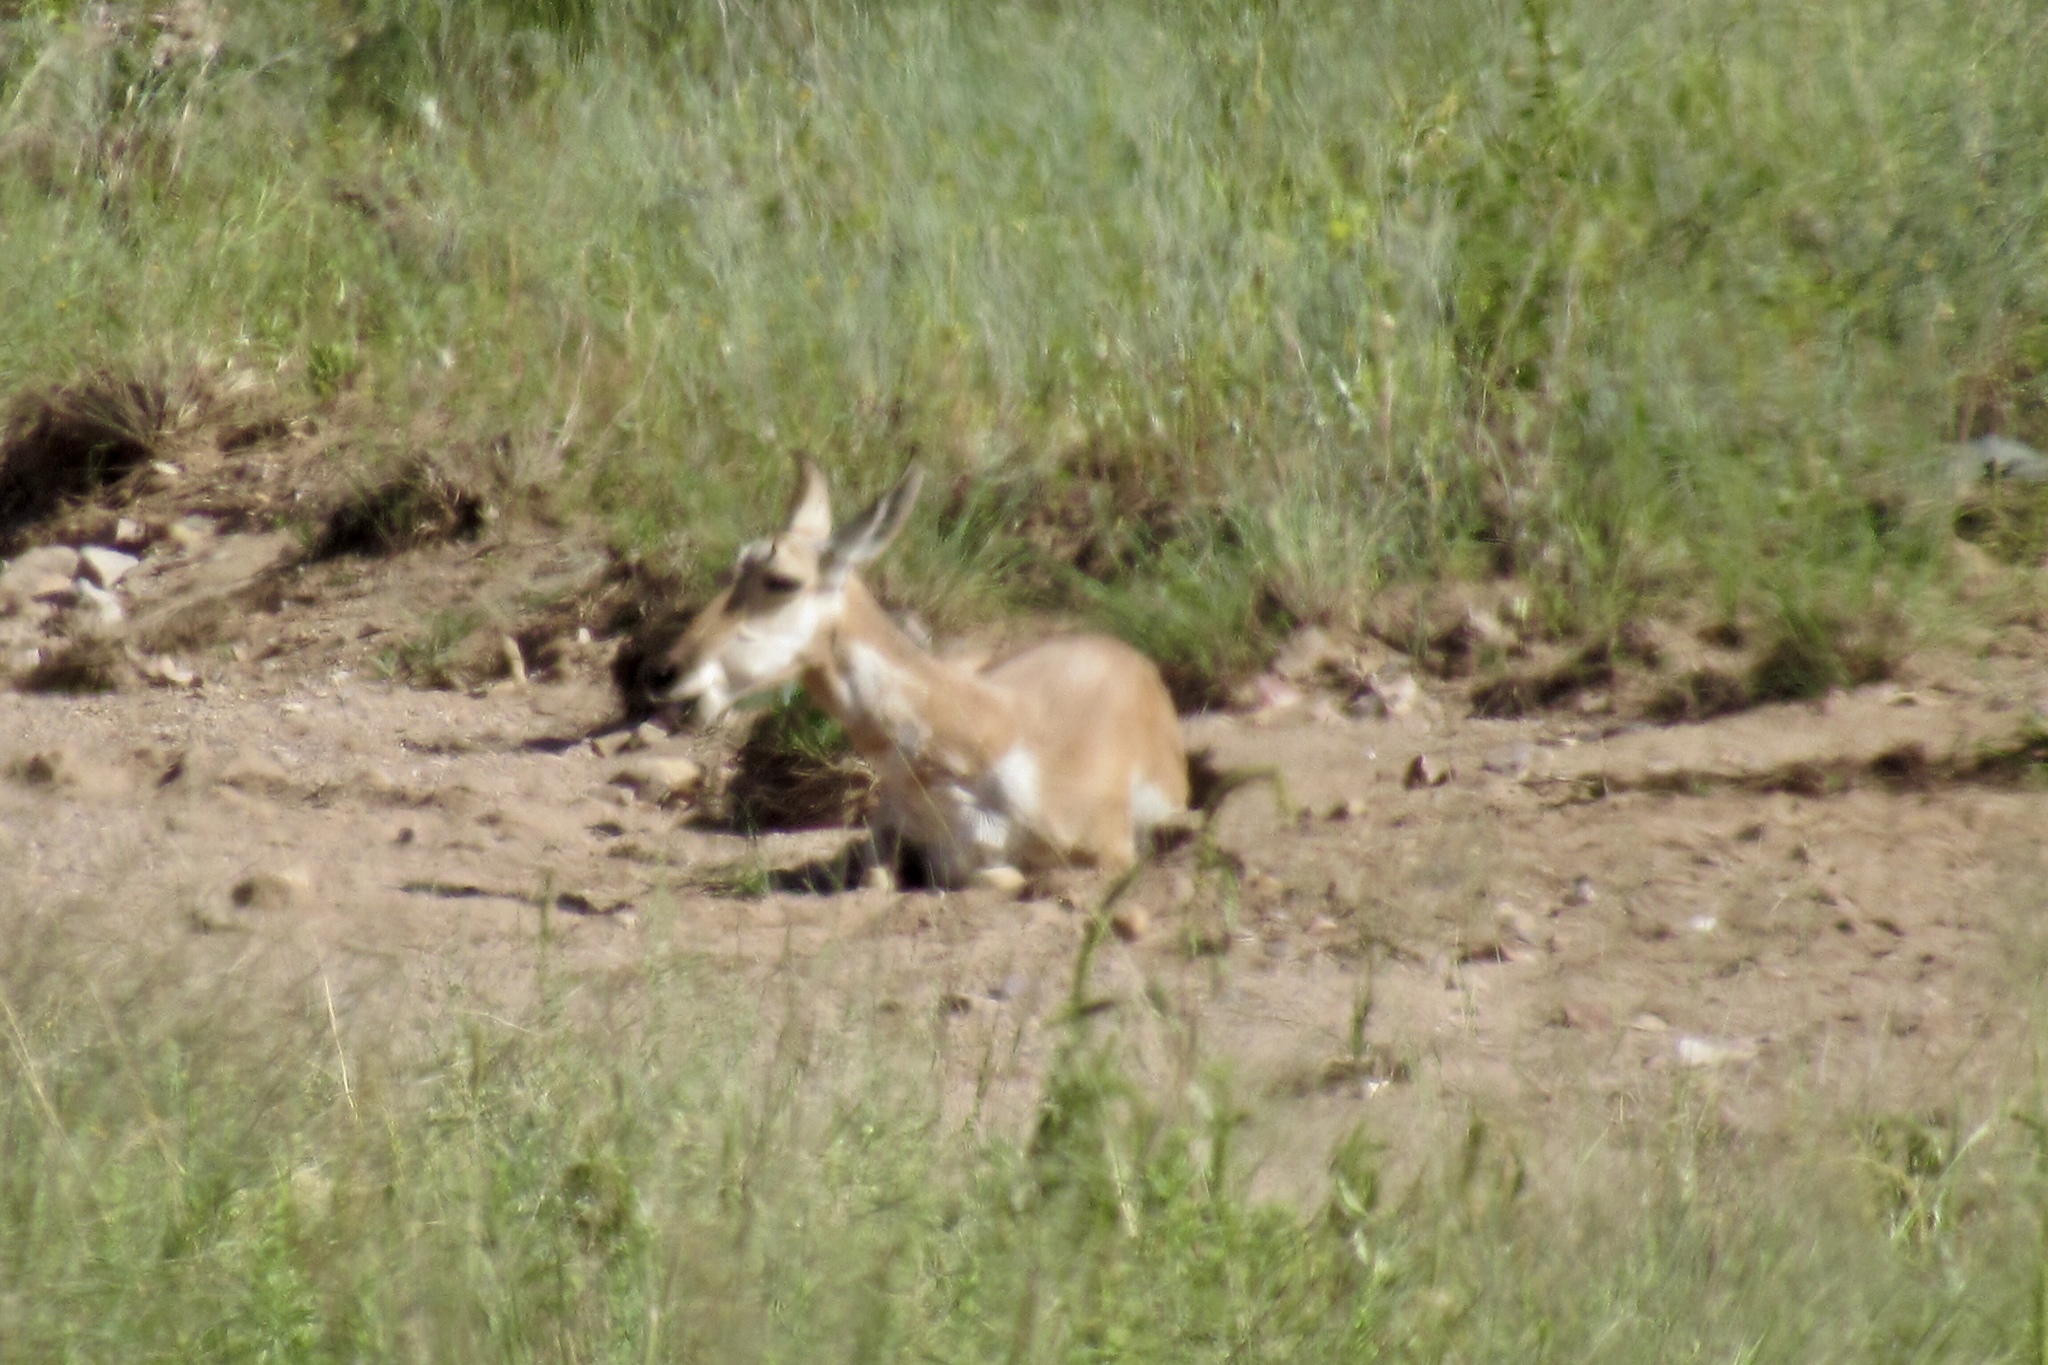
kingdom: Animalia
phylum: Chordata
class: Mammalia
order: Artiodactyla
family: Antilocapridae
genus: Antilocapra
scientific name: Antilocapra americana
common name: Pronghorn
